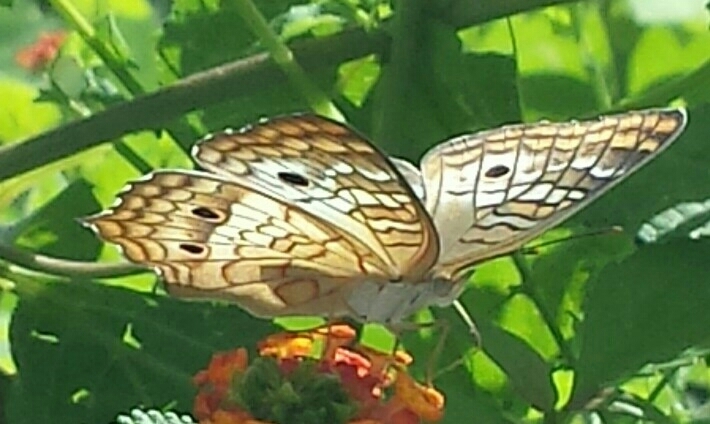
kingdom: Animalia
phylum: Arthropoda
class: Insecta
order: Lepidoptera
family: Nymphalidae
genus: Anartia
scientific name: Anartia jatrophae
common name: White peacock
